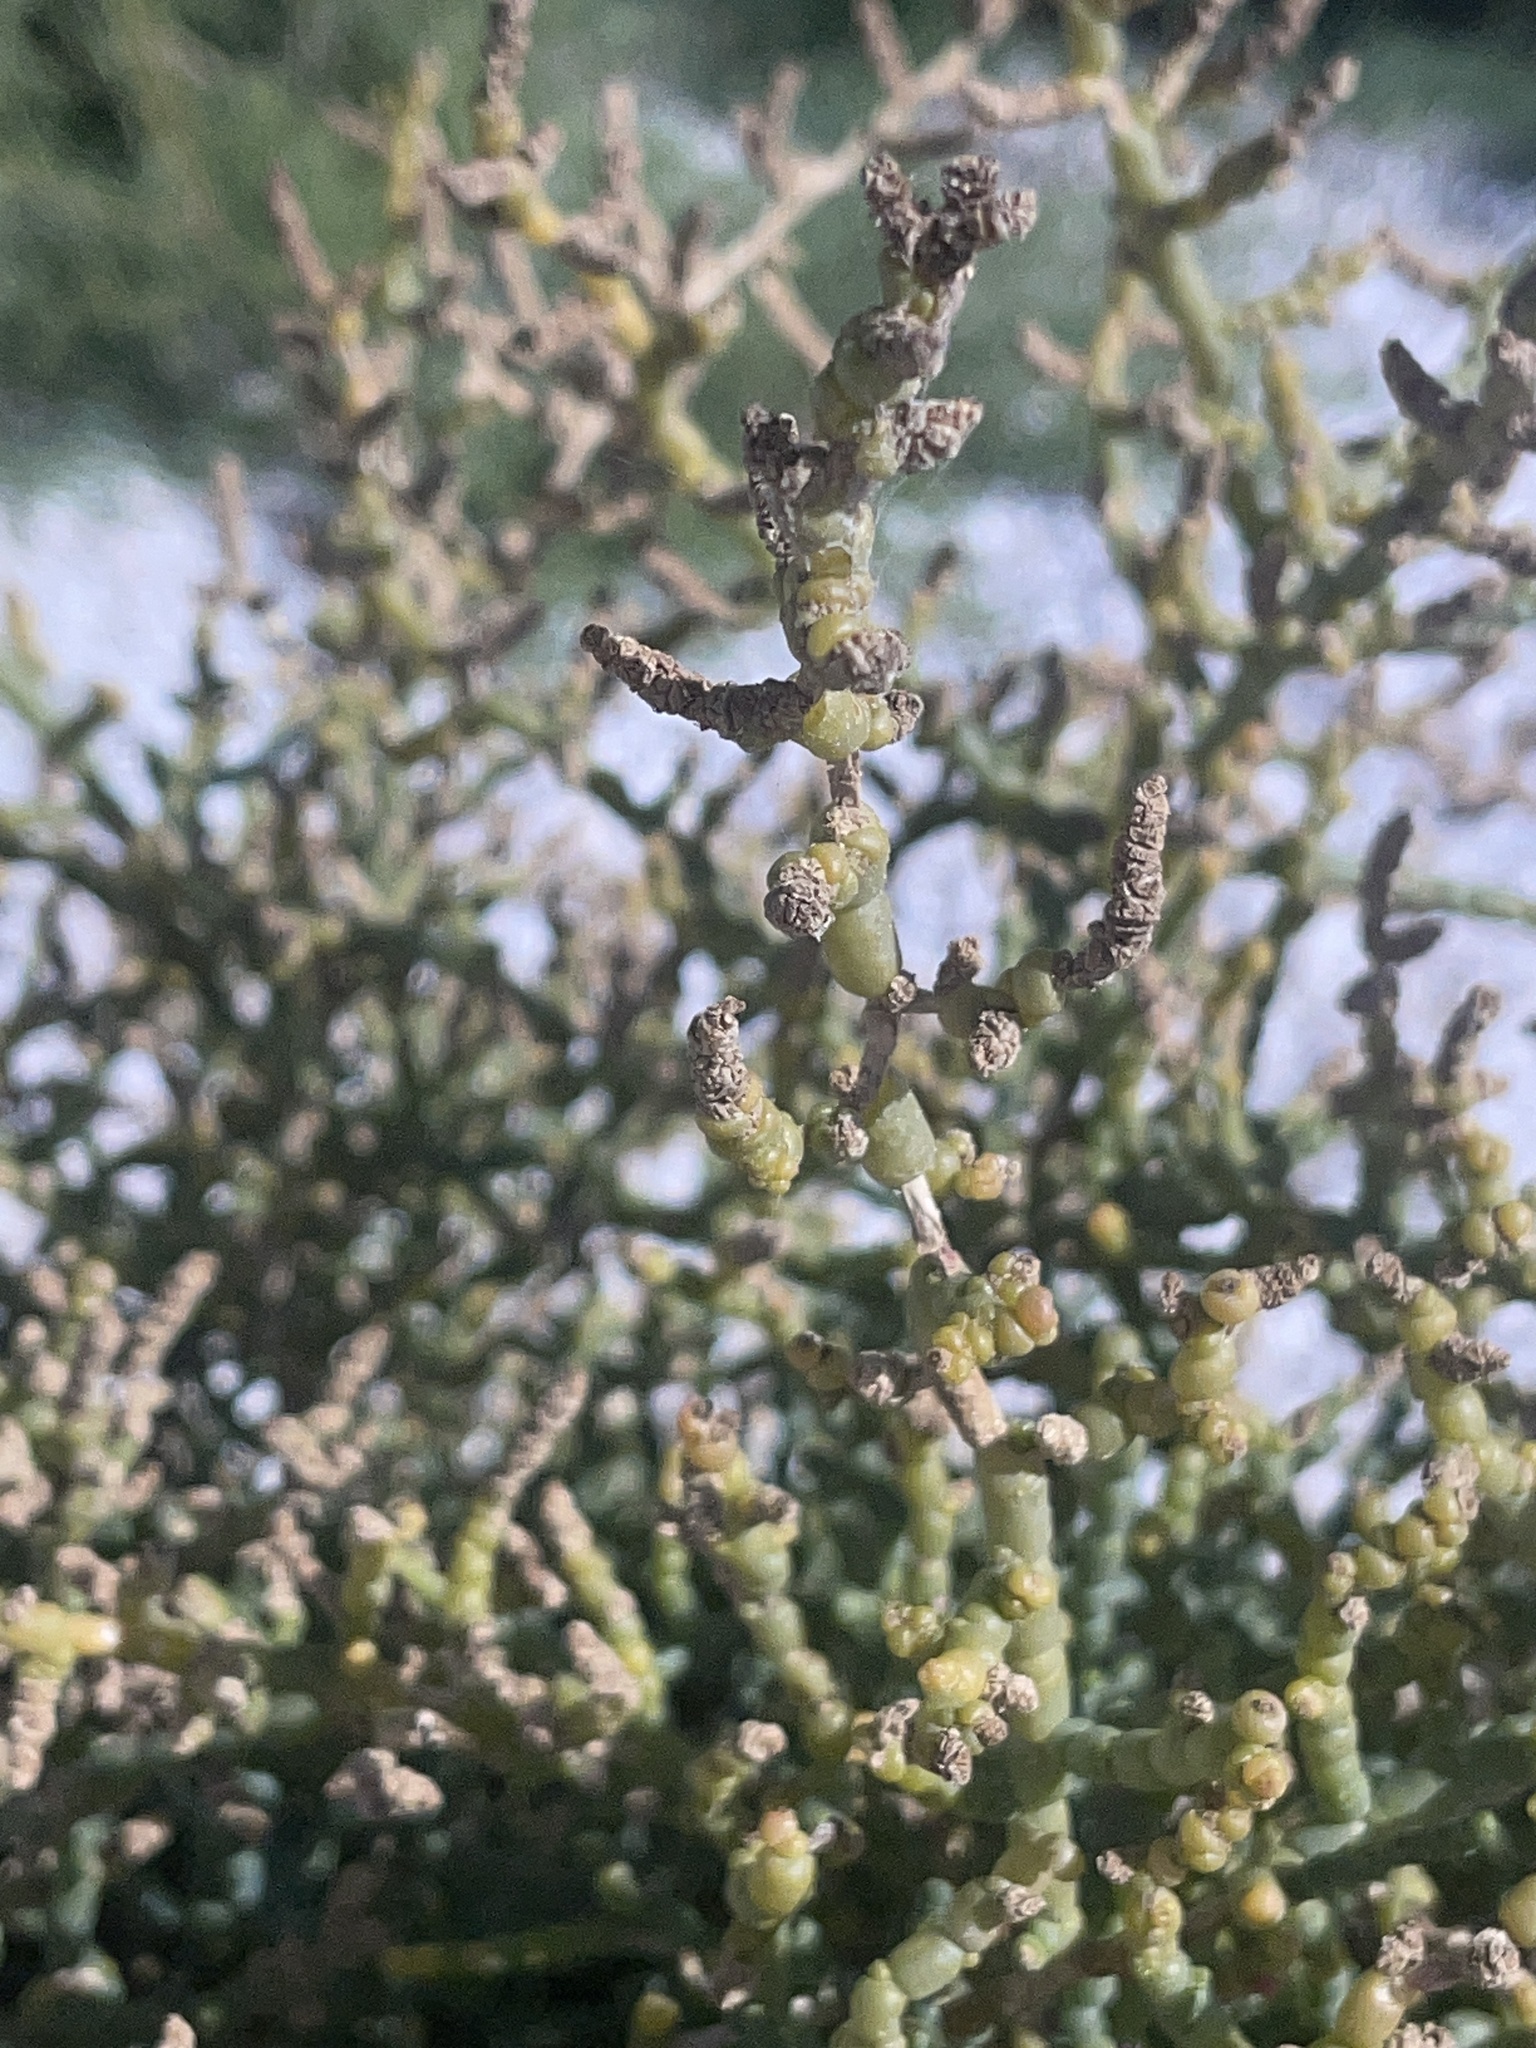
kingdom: Plantae
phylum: Tracheophyta
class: Magnoliopsida
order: Caryophyllales
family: Amaranthaceae
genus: Allenrolfea
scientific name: Allenrolfea occidentalis
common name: Iodine-bush
